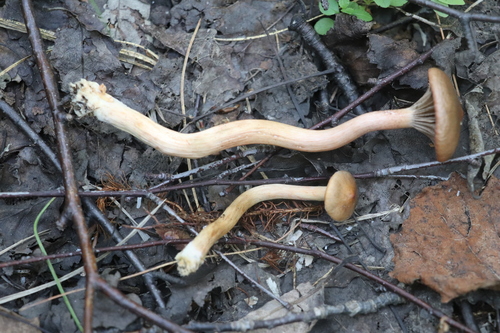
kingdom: Fungi
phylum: Basidiomycota
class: Agaricomycetes
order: Boletales
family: Gomphidiaceae
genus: Chroogomphus
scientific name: Chroogomphus
